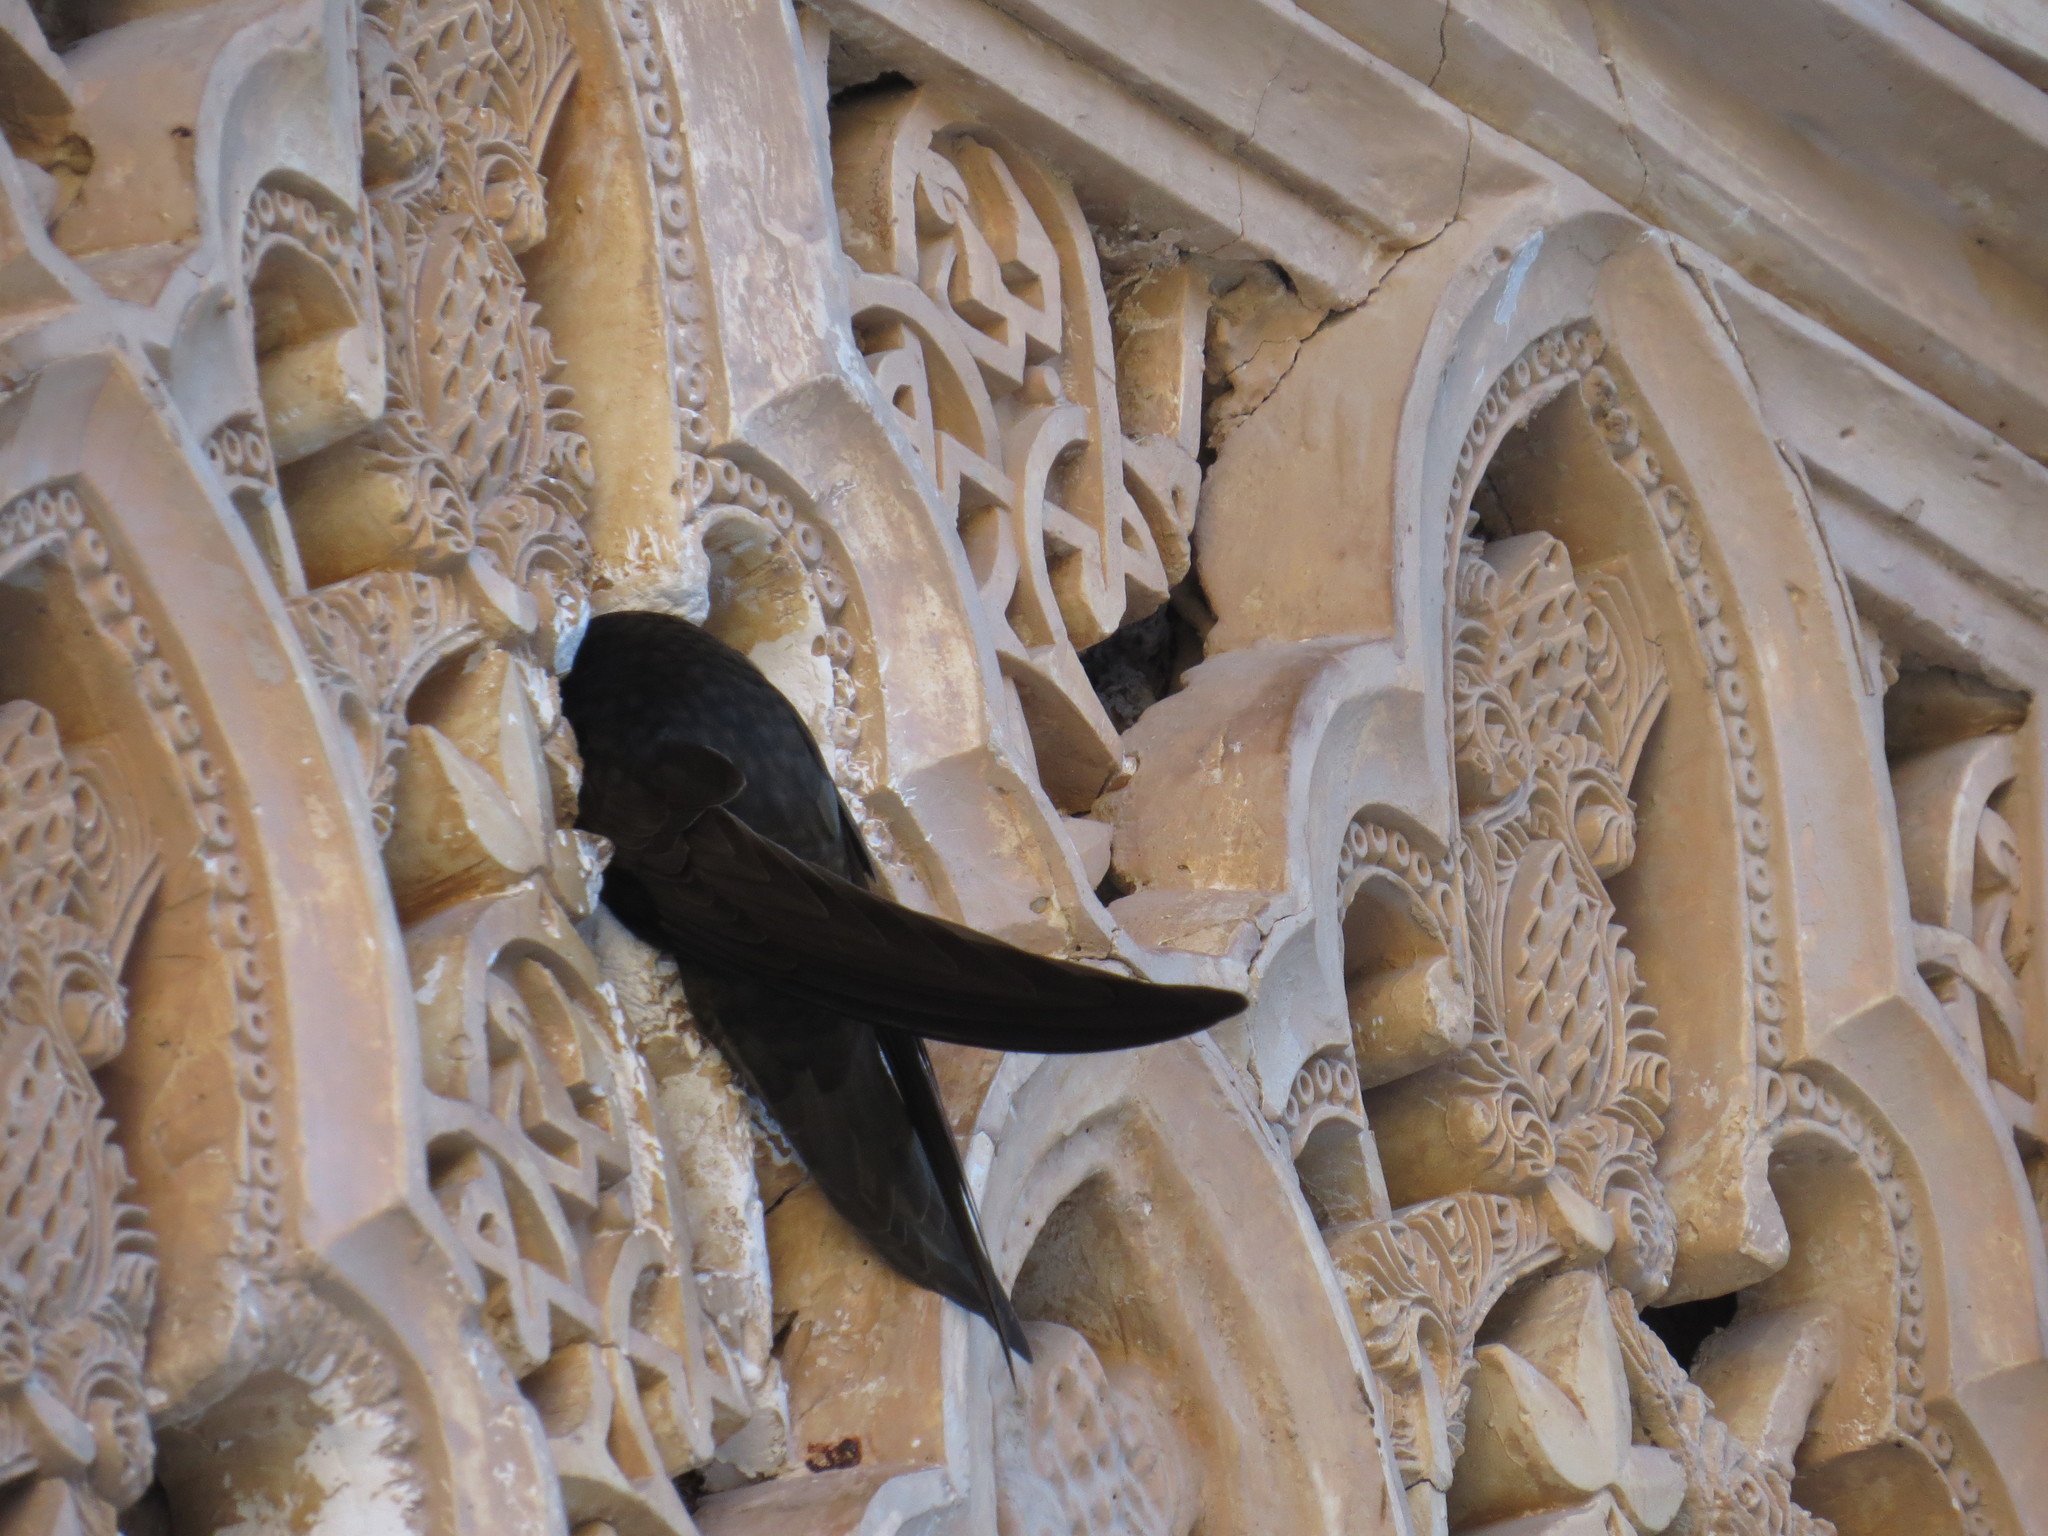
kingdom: Animalia
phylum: Chordata
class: Aves
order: Apodiformes
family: Apodidae
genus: Apus
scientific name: Apus apus
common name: Common swift
